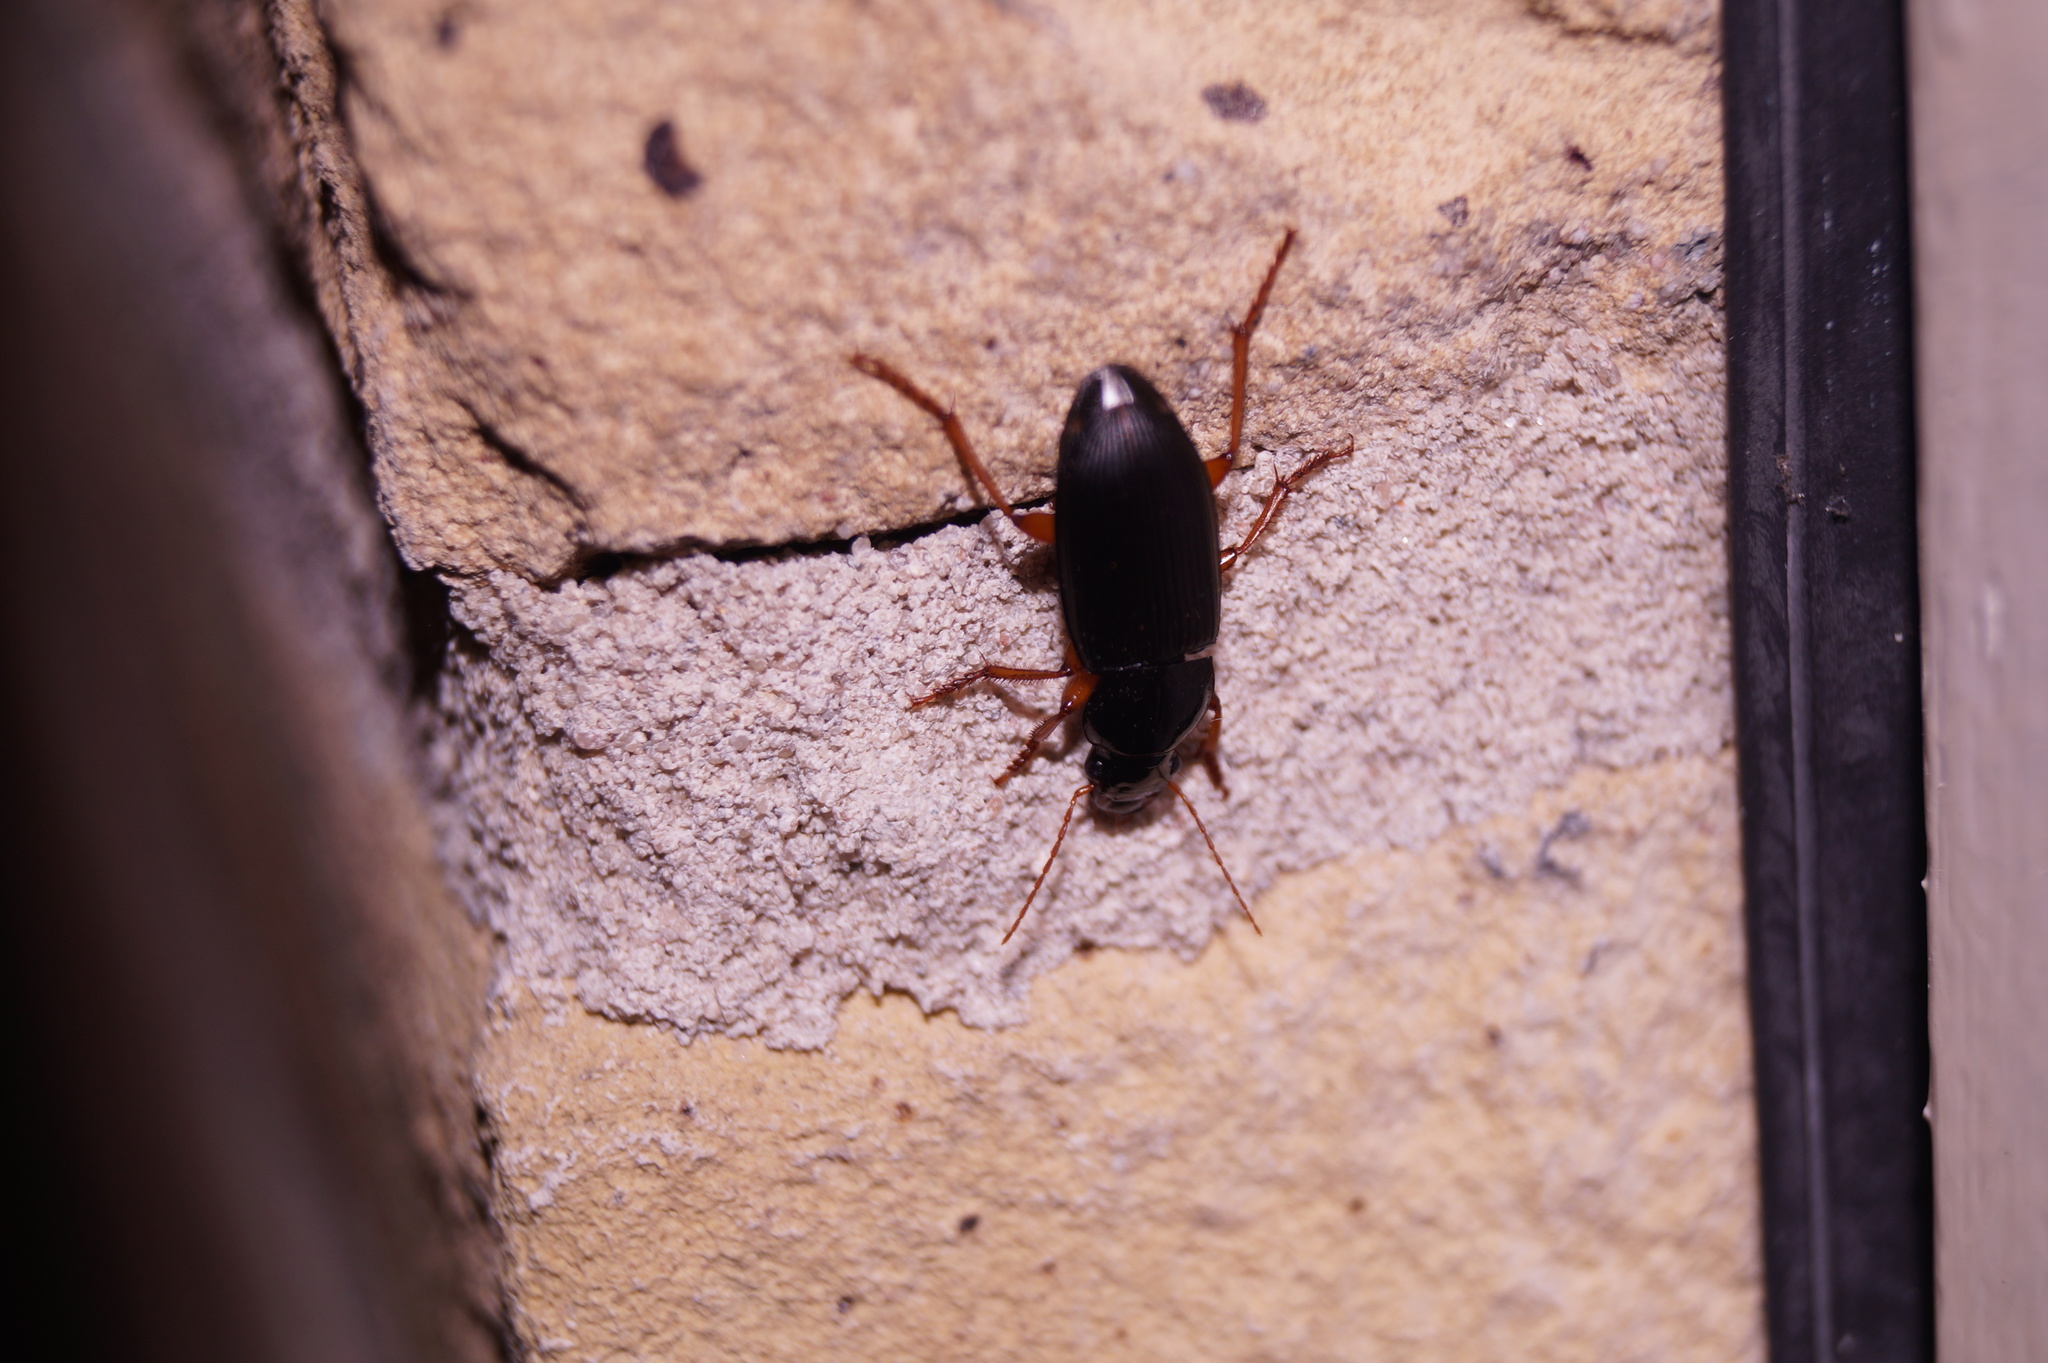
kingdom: Animalia
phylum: Arthropoda
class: Insecta
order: Coleoptera
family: Carabidae
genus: Harpalus
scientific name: Harpalus rufipes
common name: Strawberry harp ground beetle
